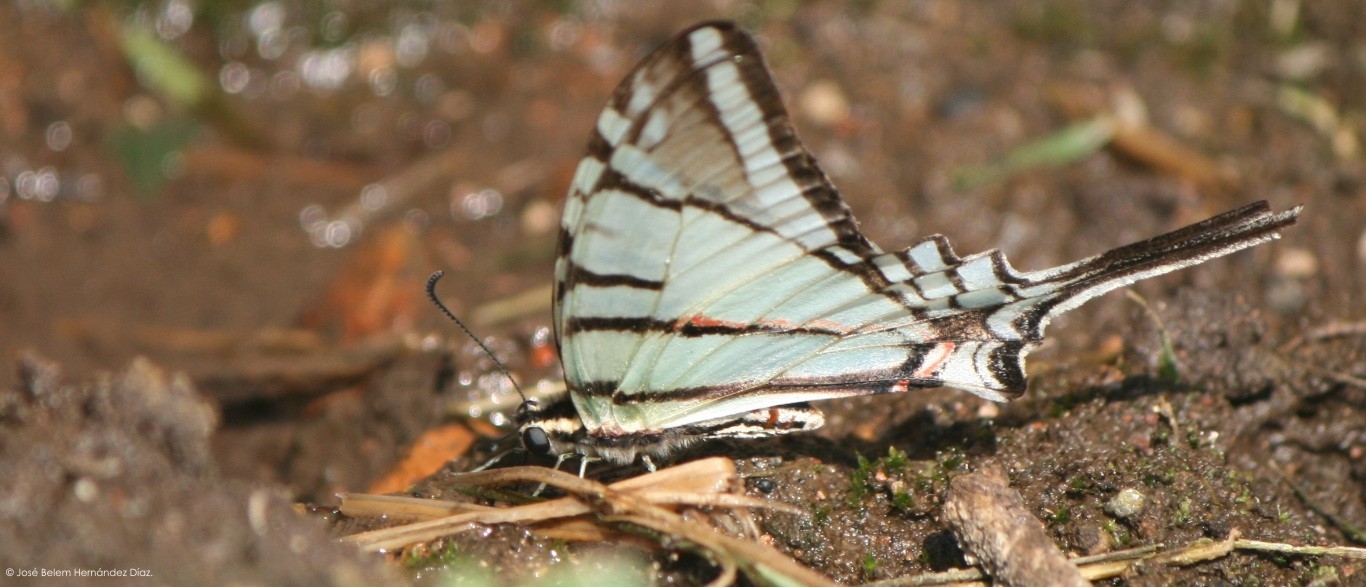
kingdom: Animalia
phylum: Arthropoda
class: Insecta
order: Lepidoptera
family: Papilionidae
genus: Protographium
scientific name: Protographium epidaus
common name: Mexican kite swallowtail
